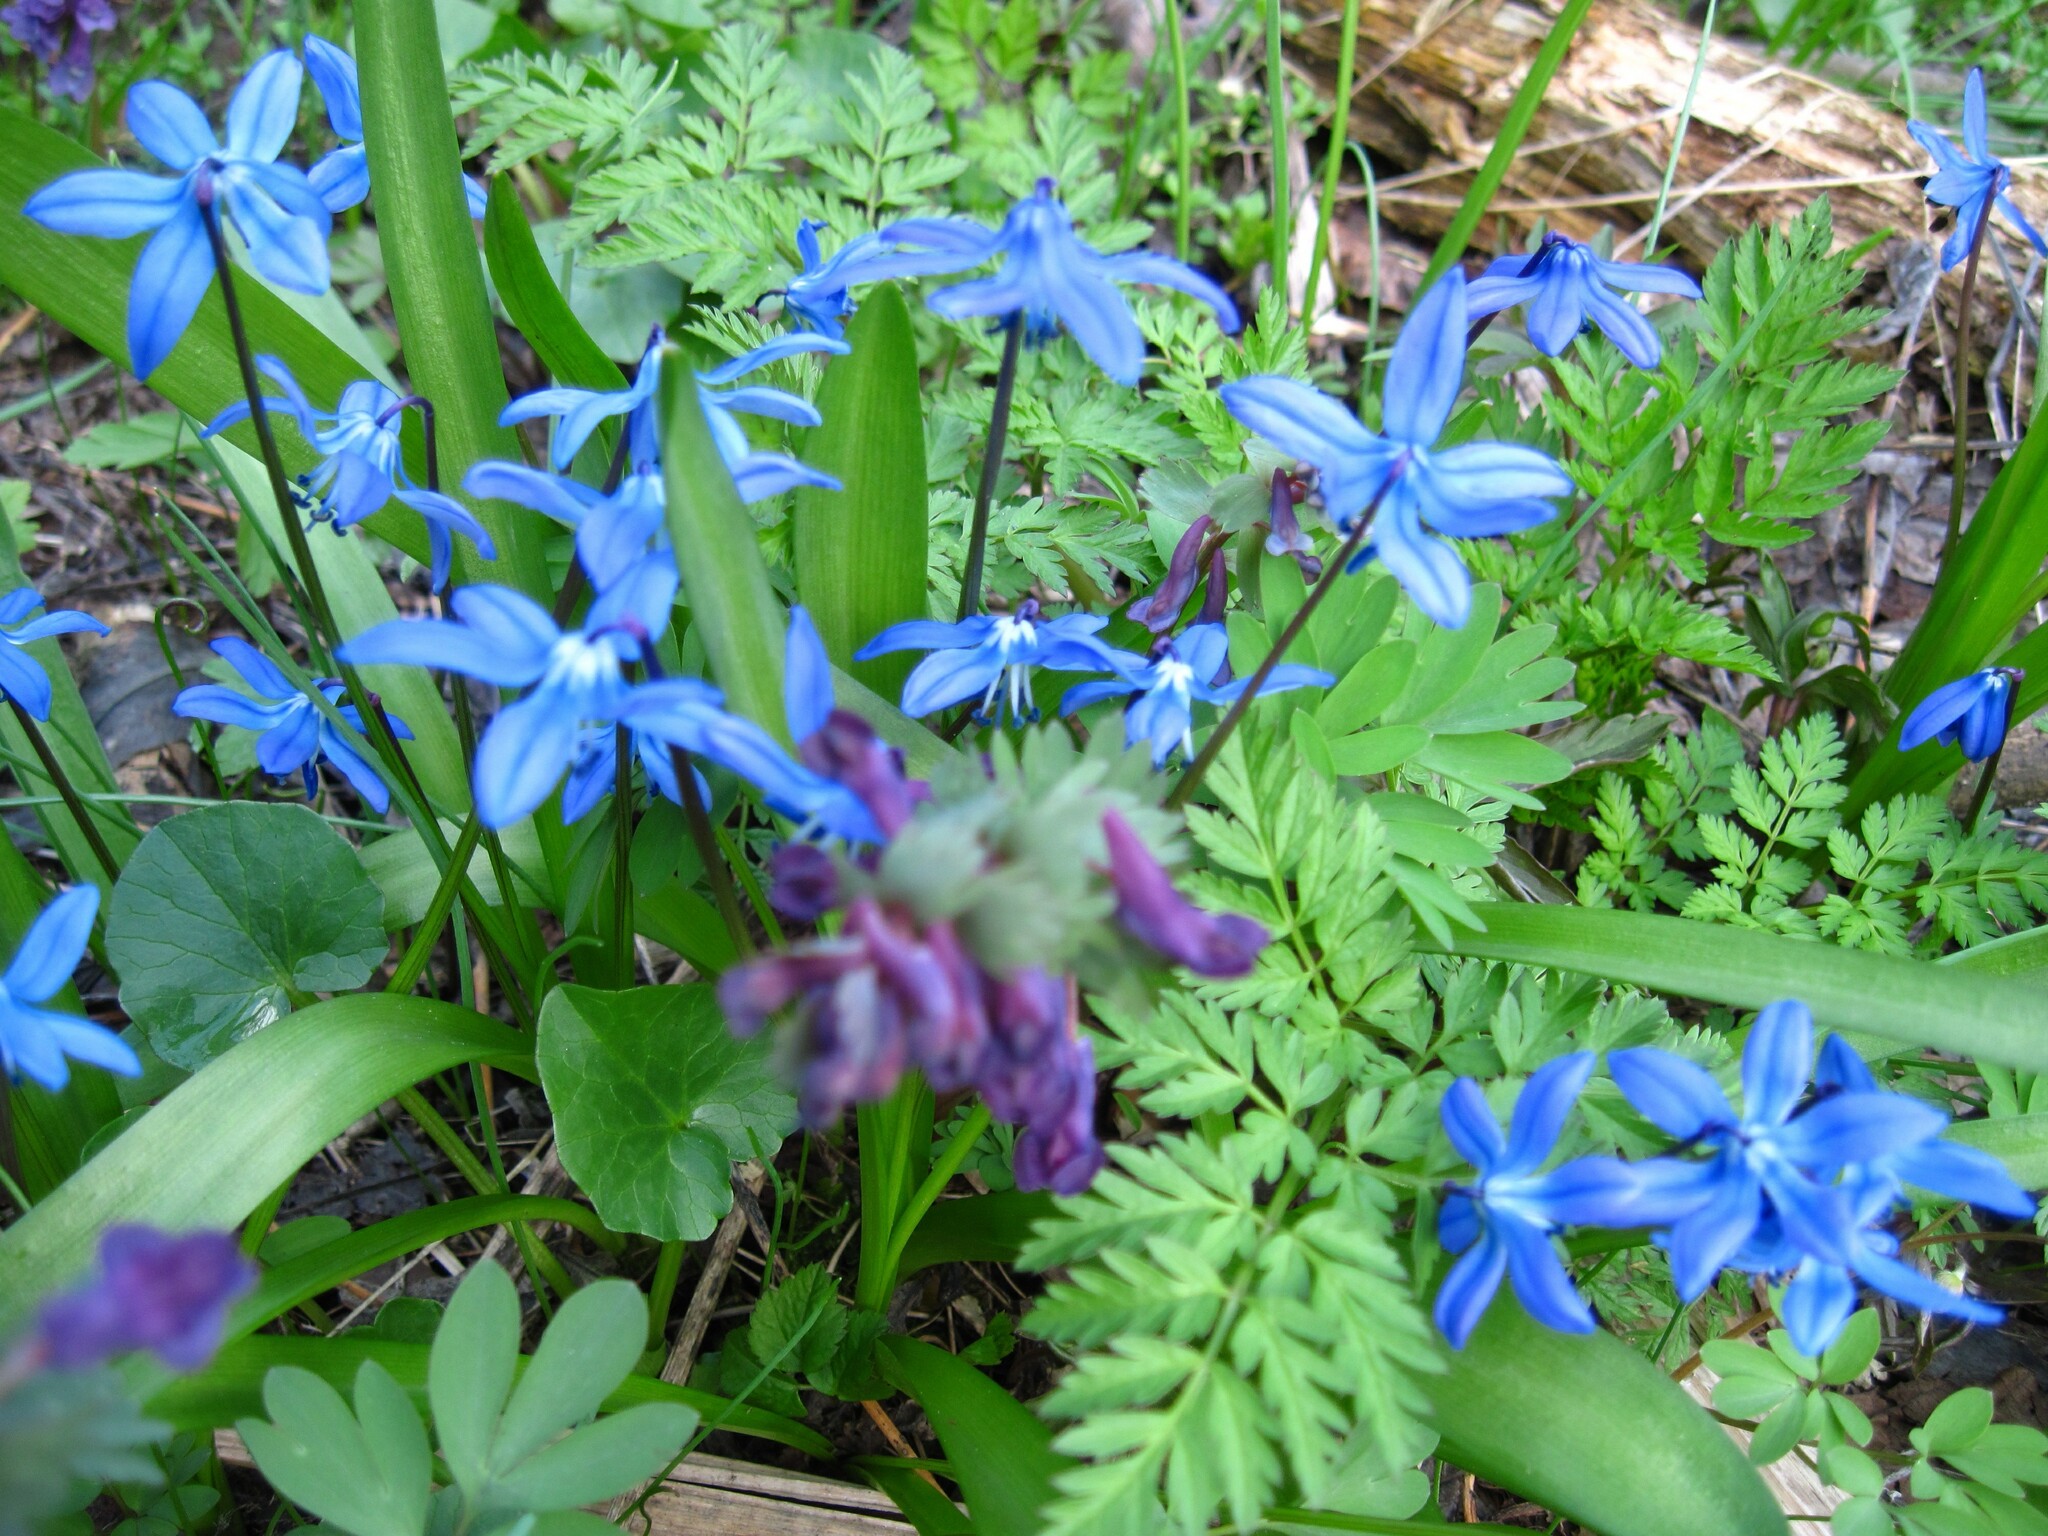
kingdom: Plantae
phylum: Tracheophyta
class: Liliopsida
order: Asparagales
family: Asparagaceae
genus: Scilla
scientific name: Scilla siberica
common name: Siberian squill
